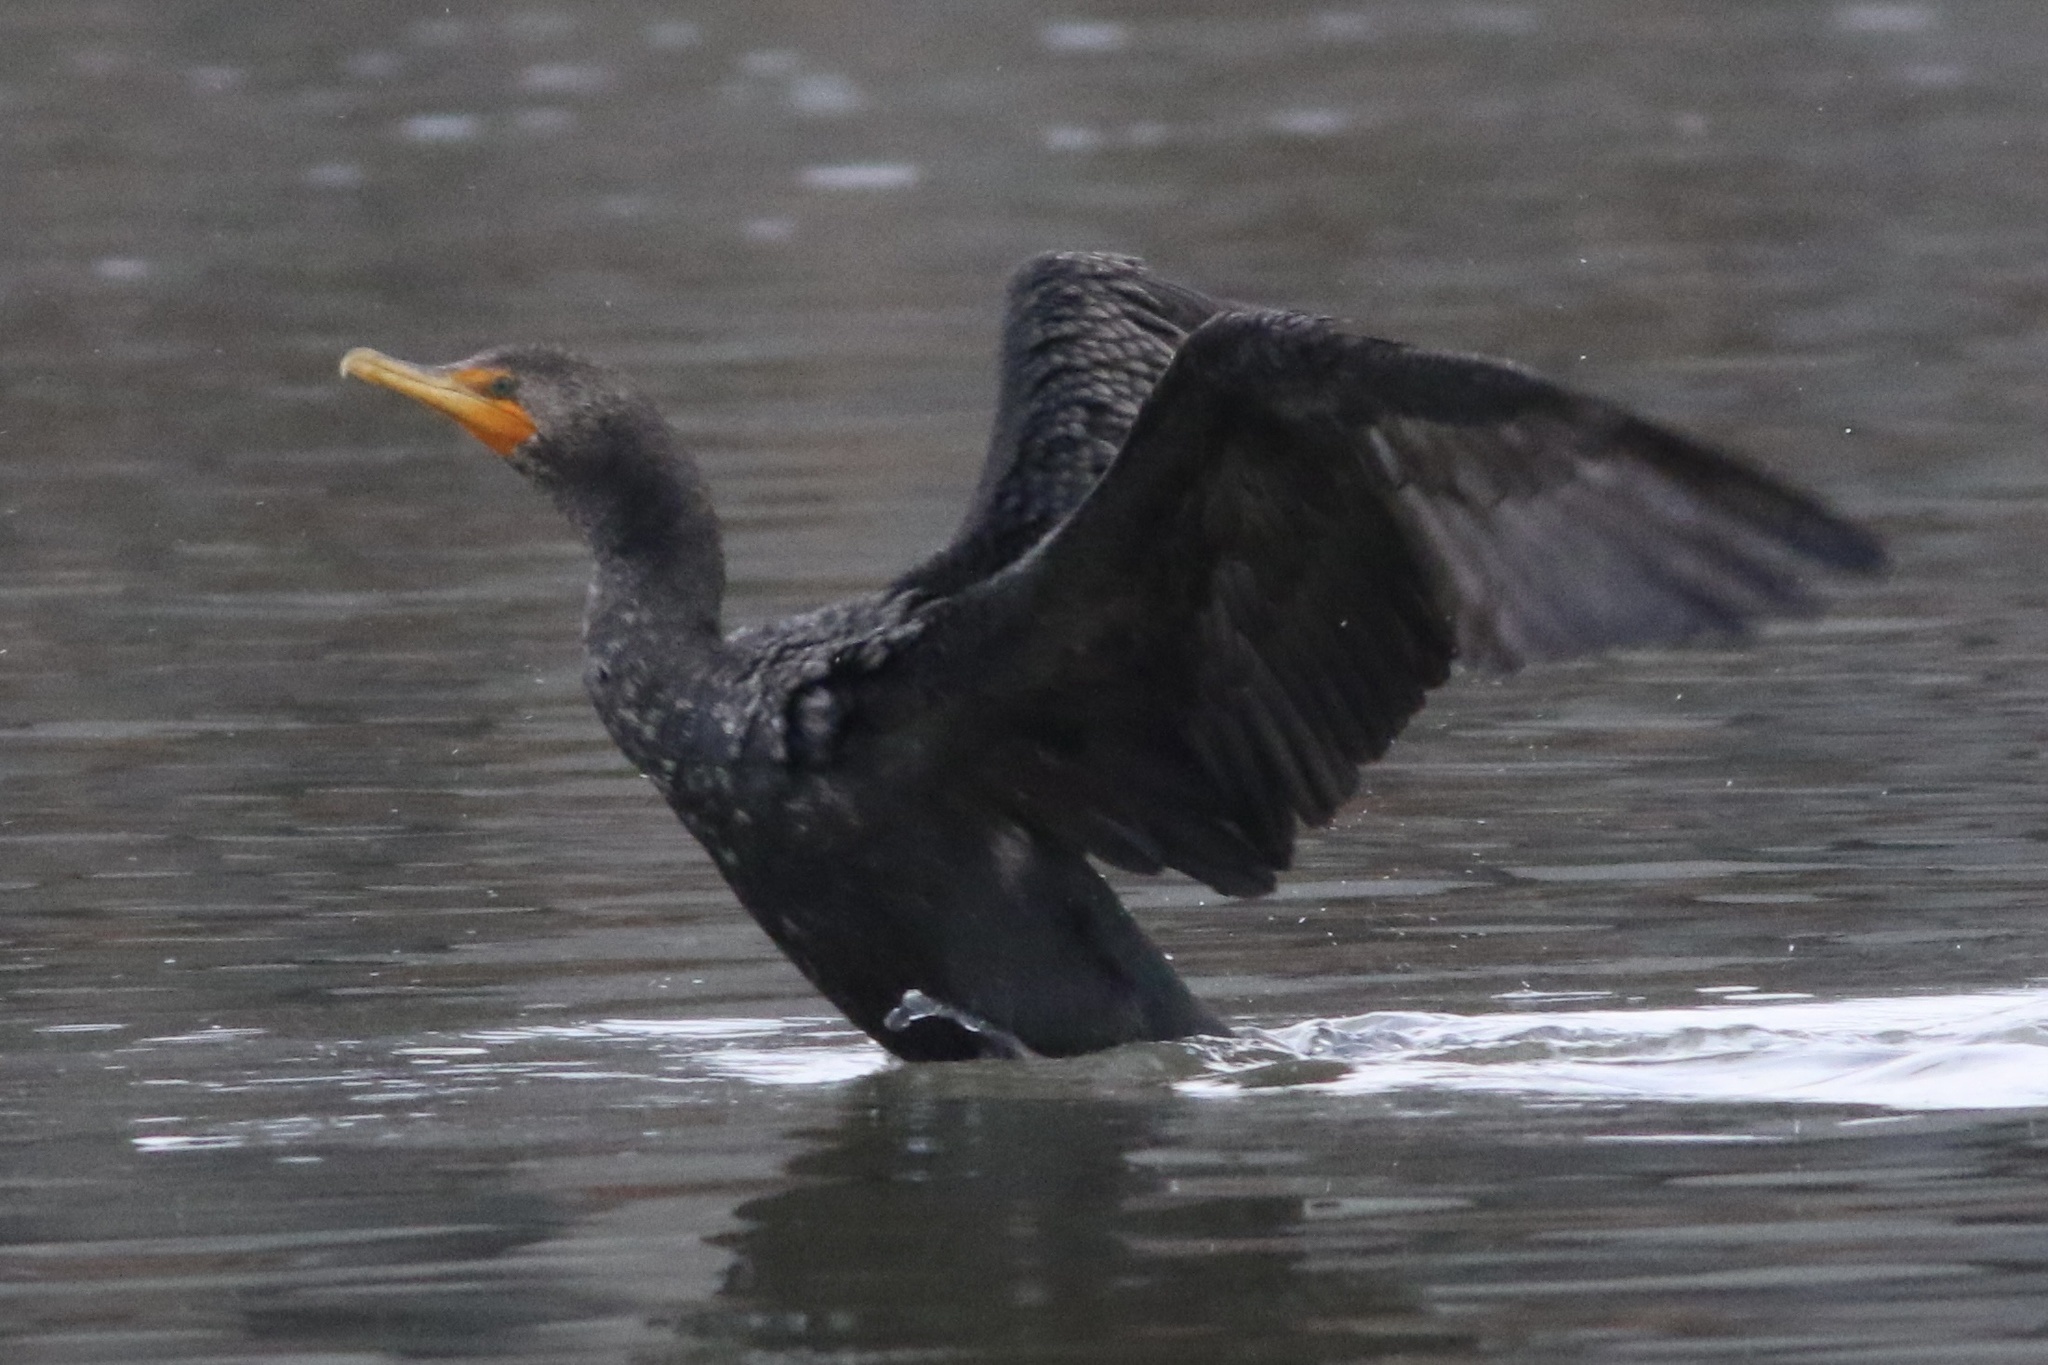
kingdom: Animalia
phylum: Chordata
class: Aves
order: Suliformes
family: Phalacrocoracidae
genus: Phalacrocorax
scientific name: Phalacrocorax auritus
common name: Double-crested cormorant
